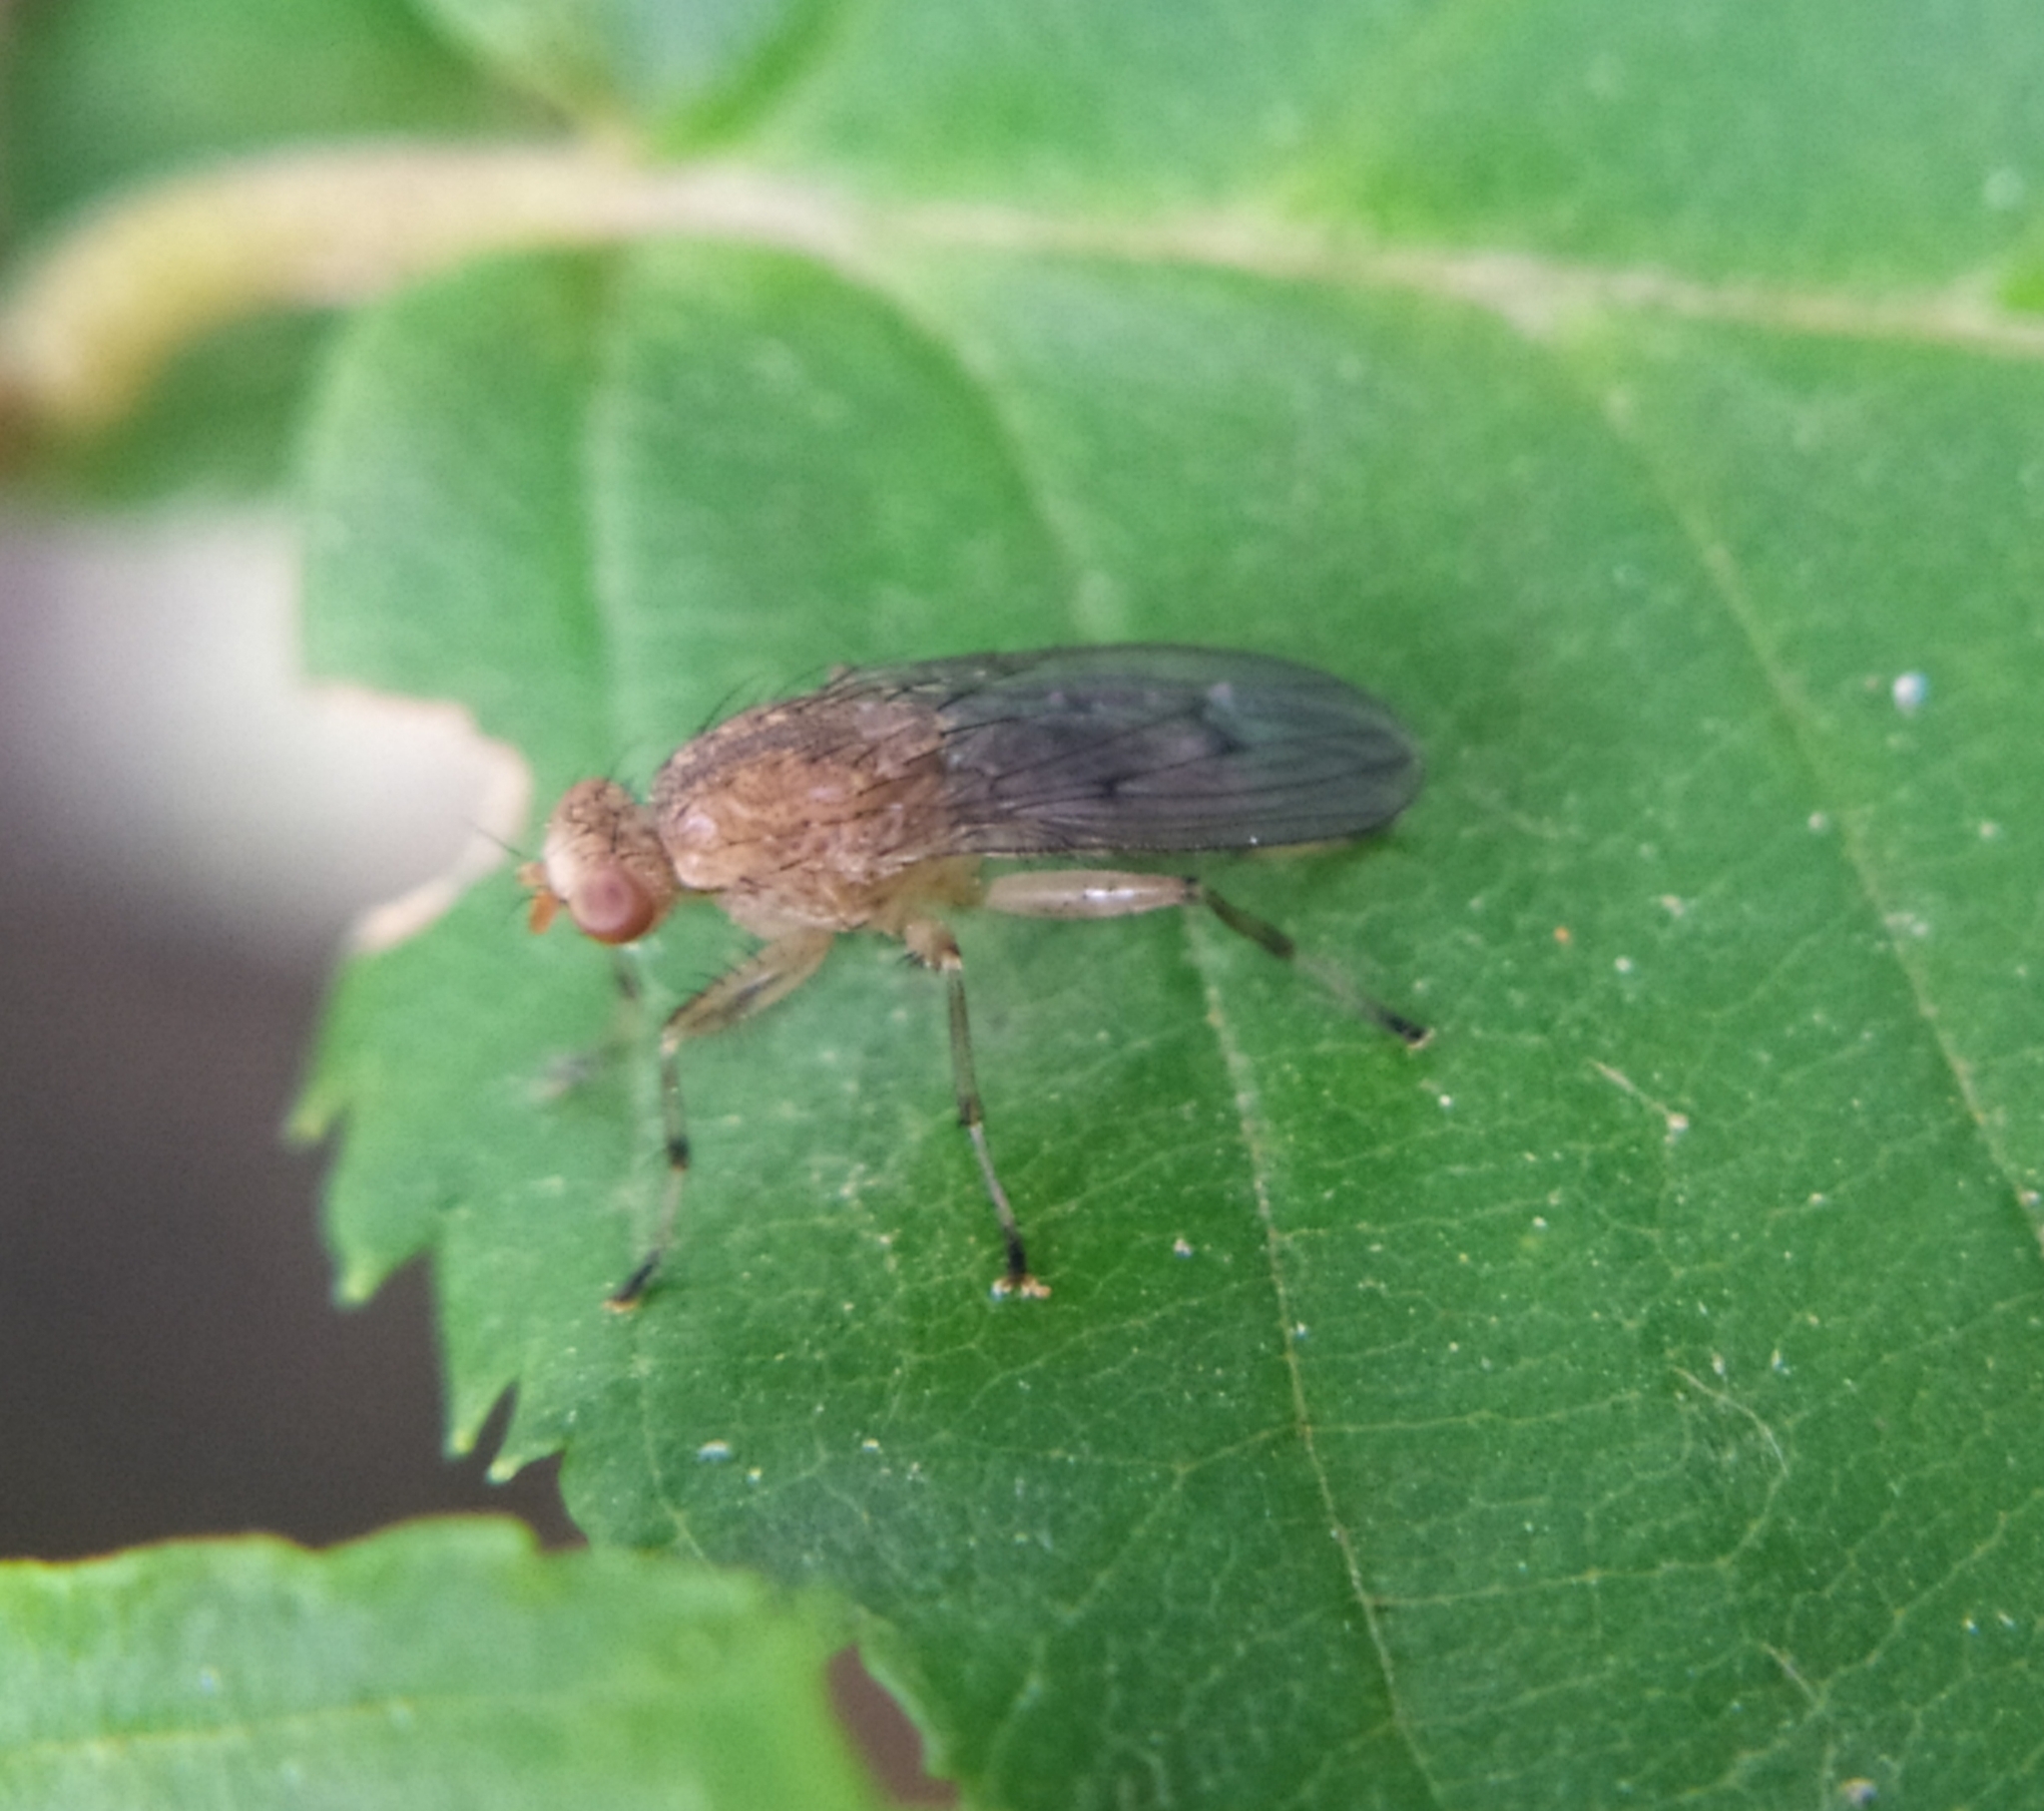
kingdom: Animalia
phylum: Arthropoda
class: Insecta
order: Diptera
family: Heleomyzidae
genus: Suillia
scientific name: Suillia affinis
